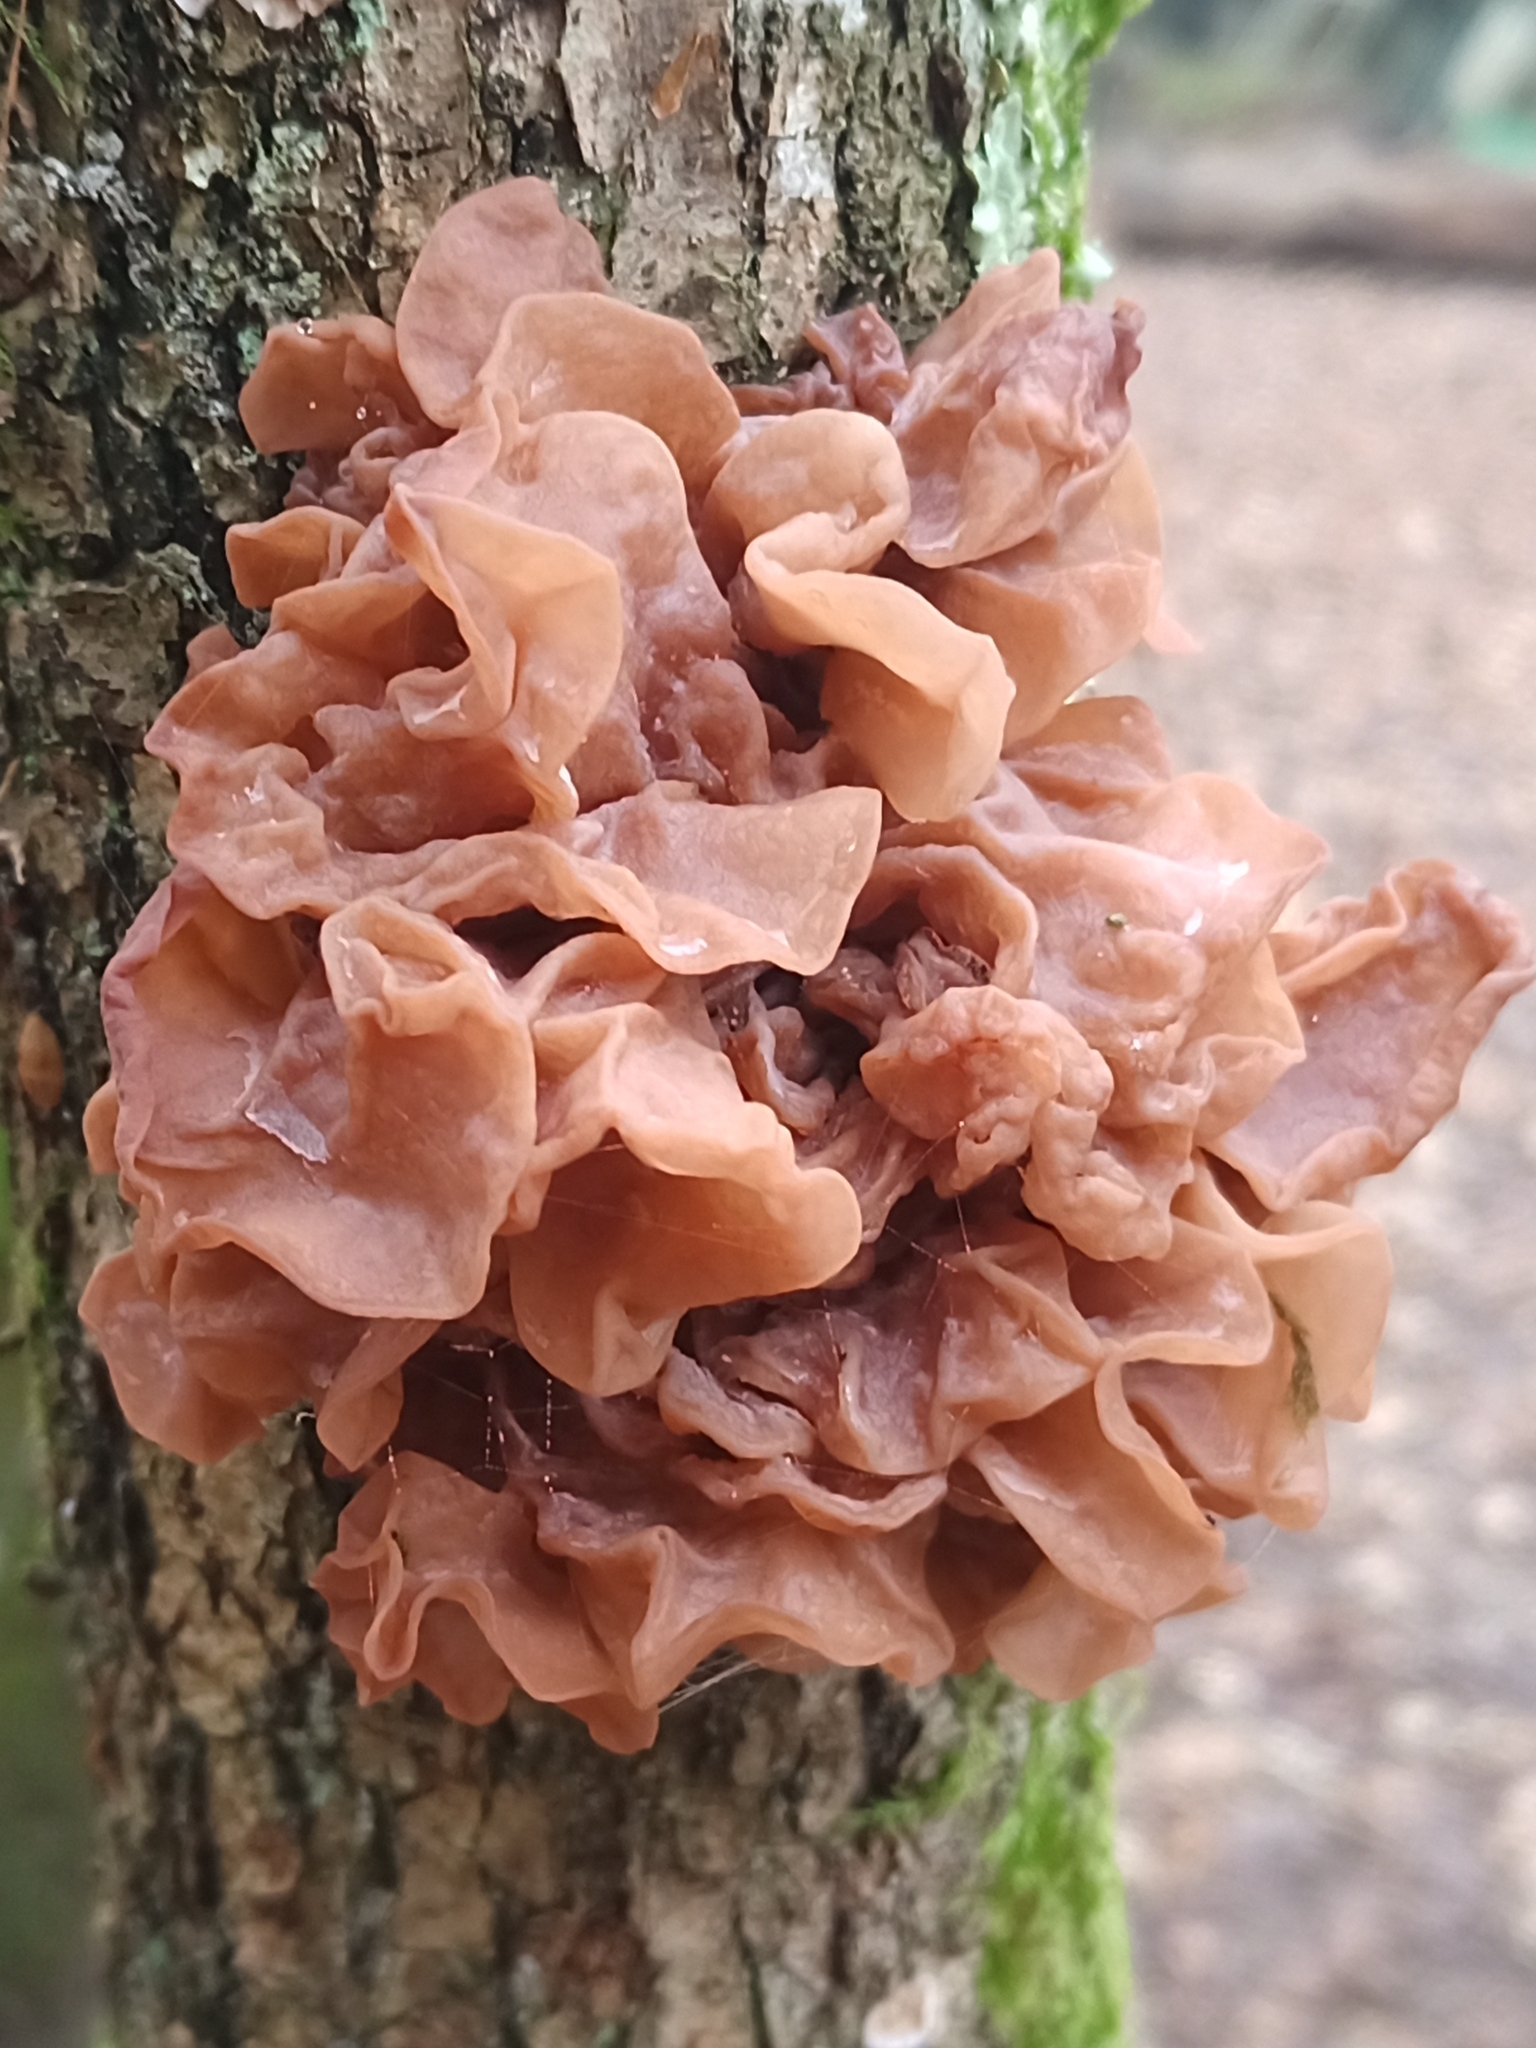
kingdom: Fungi
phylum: Basidiomycota
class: Tremellomycetes
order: Tremellales
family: Tremellaceae
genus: Phaeotremella
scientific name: Phaeotremella frondosa
